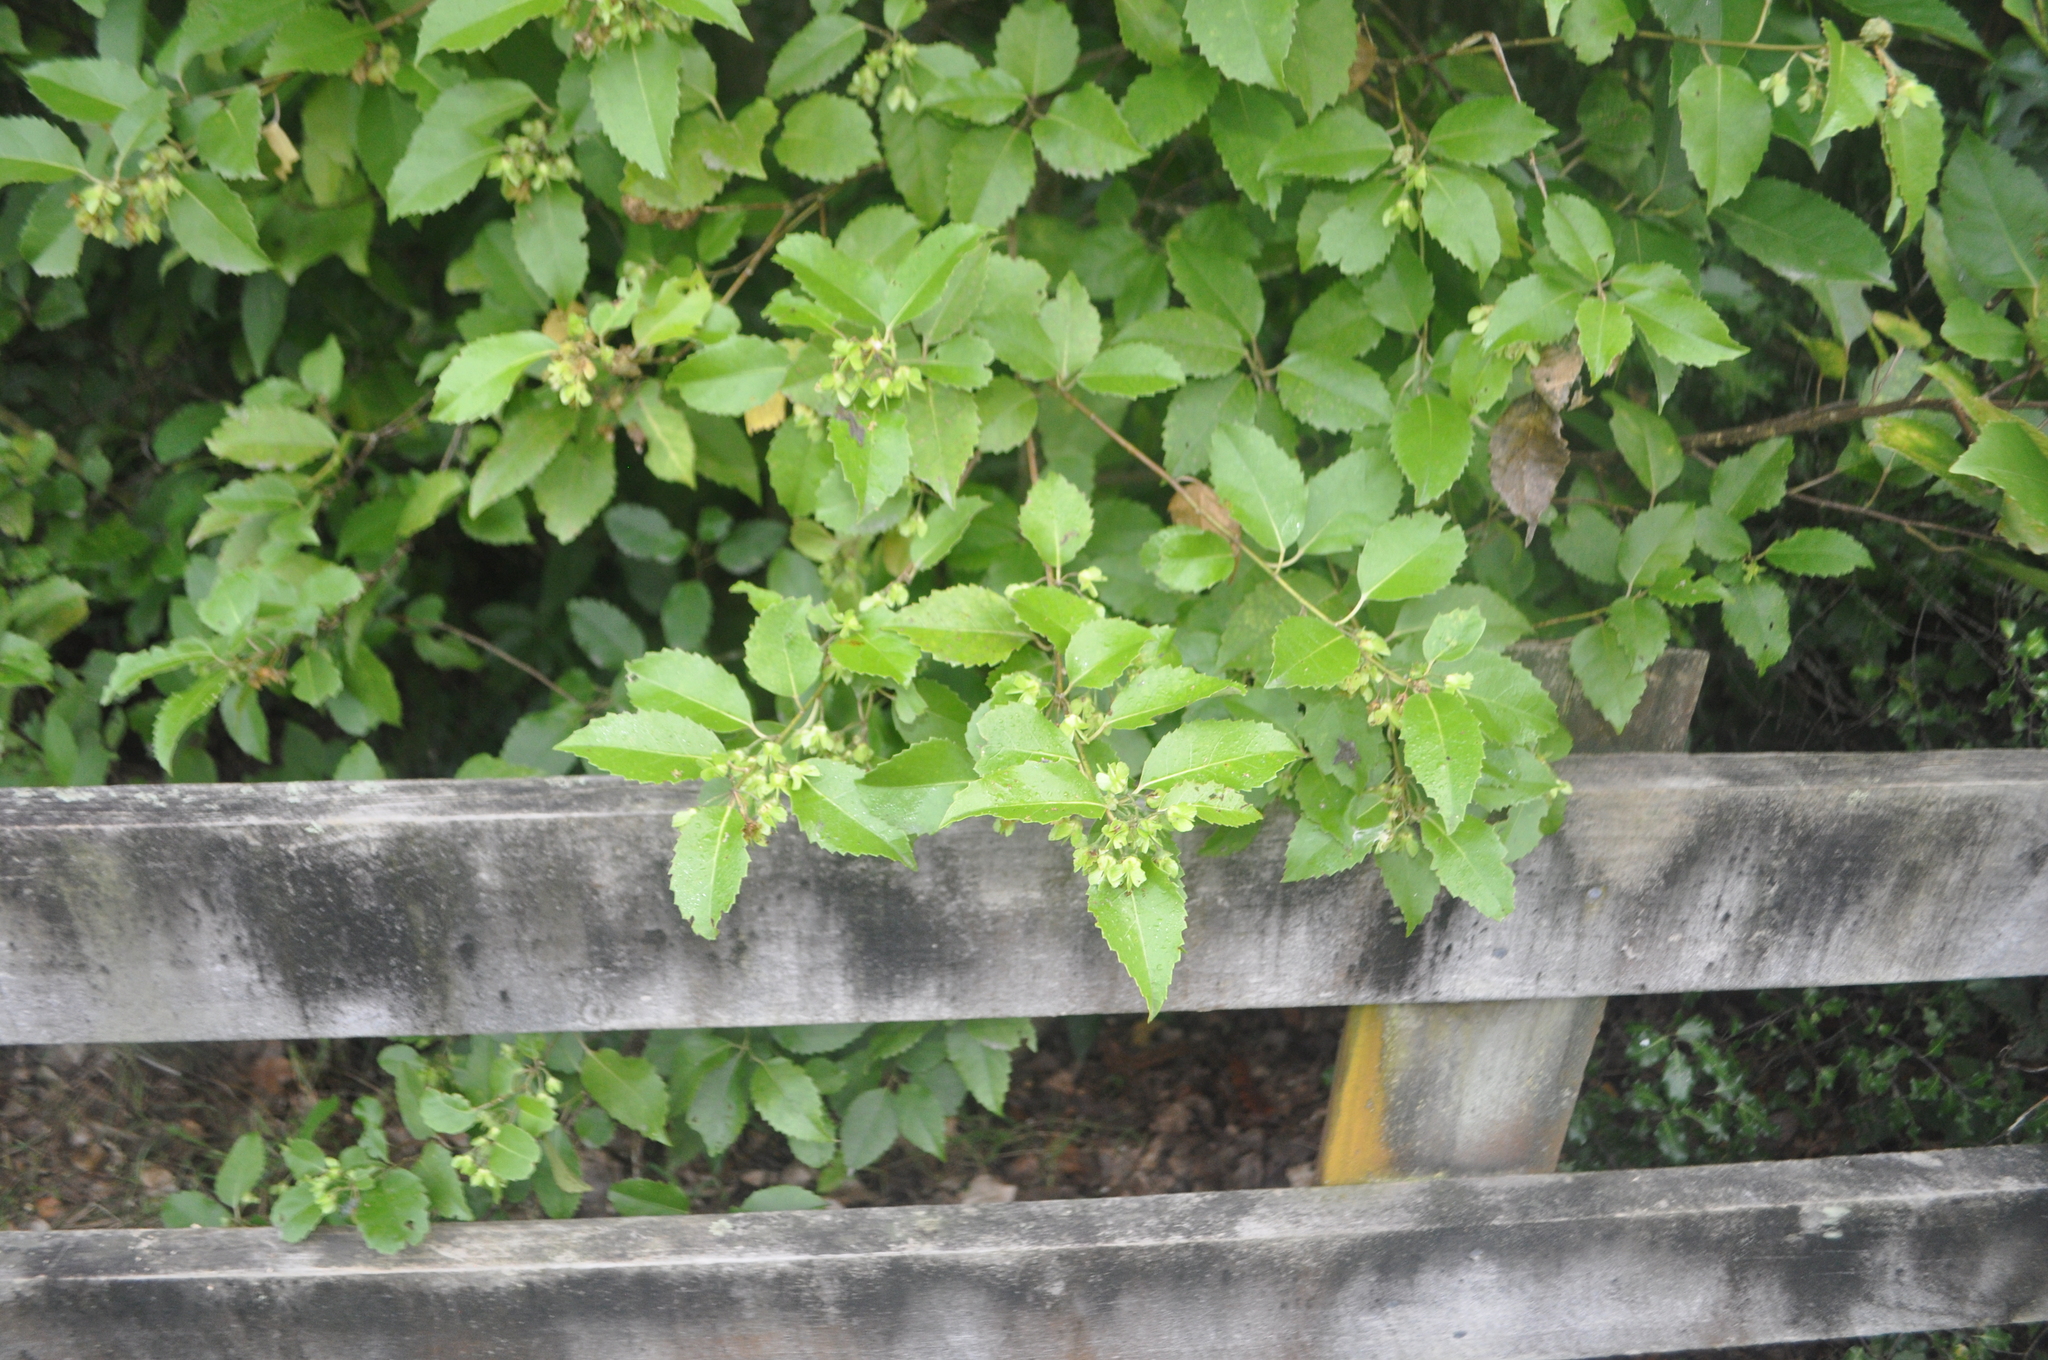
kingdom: Plantae
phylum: Tracheophyta
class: Magnoliopsida
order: Malvales
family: Malvaceae
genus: Hoheria
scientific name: Hoheria populnea
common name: Lacebark
